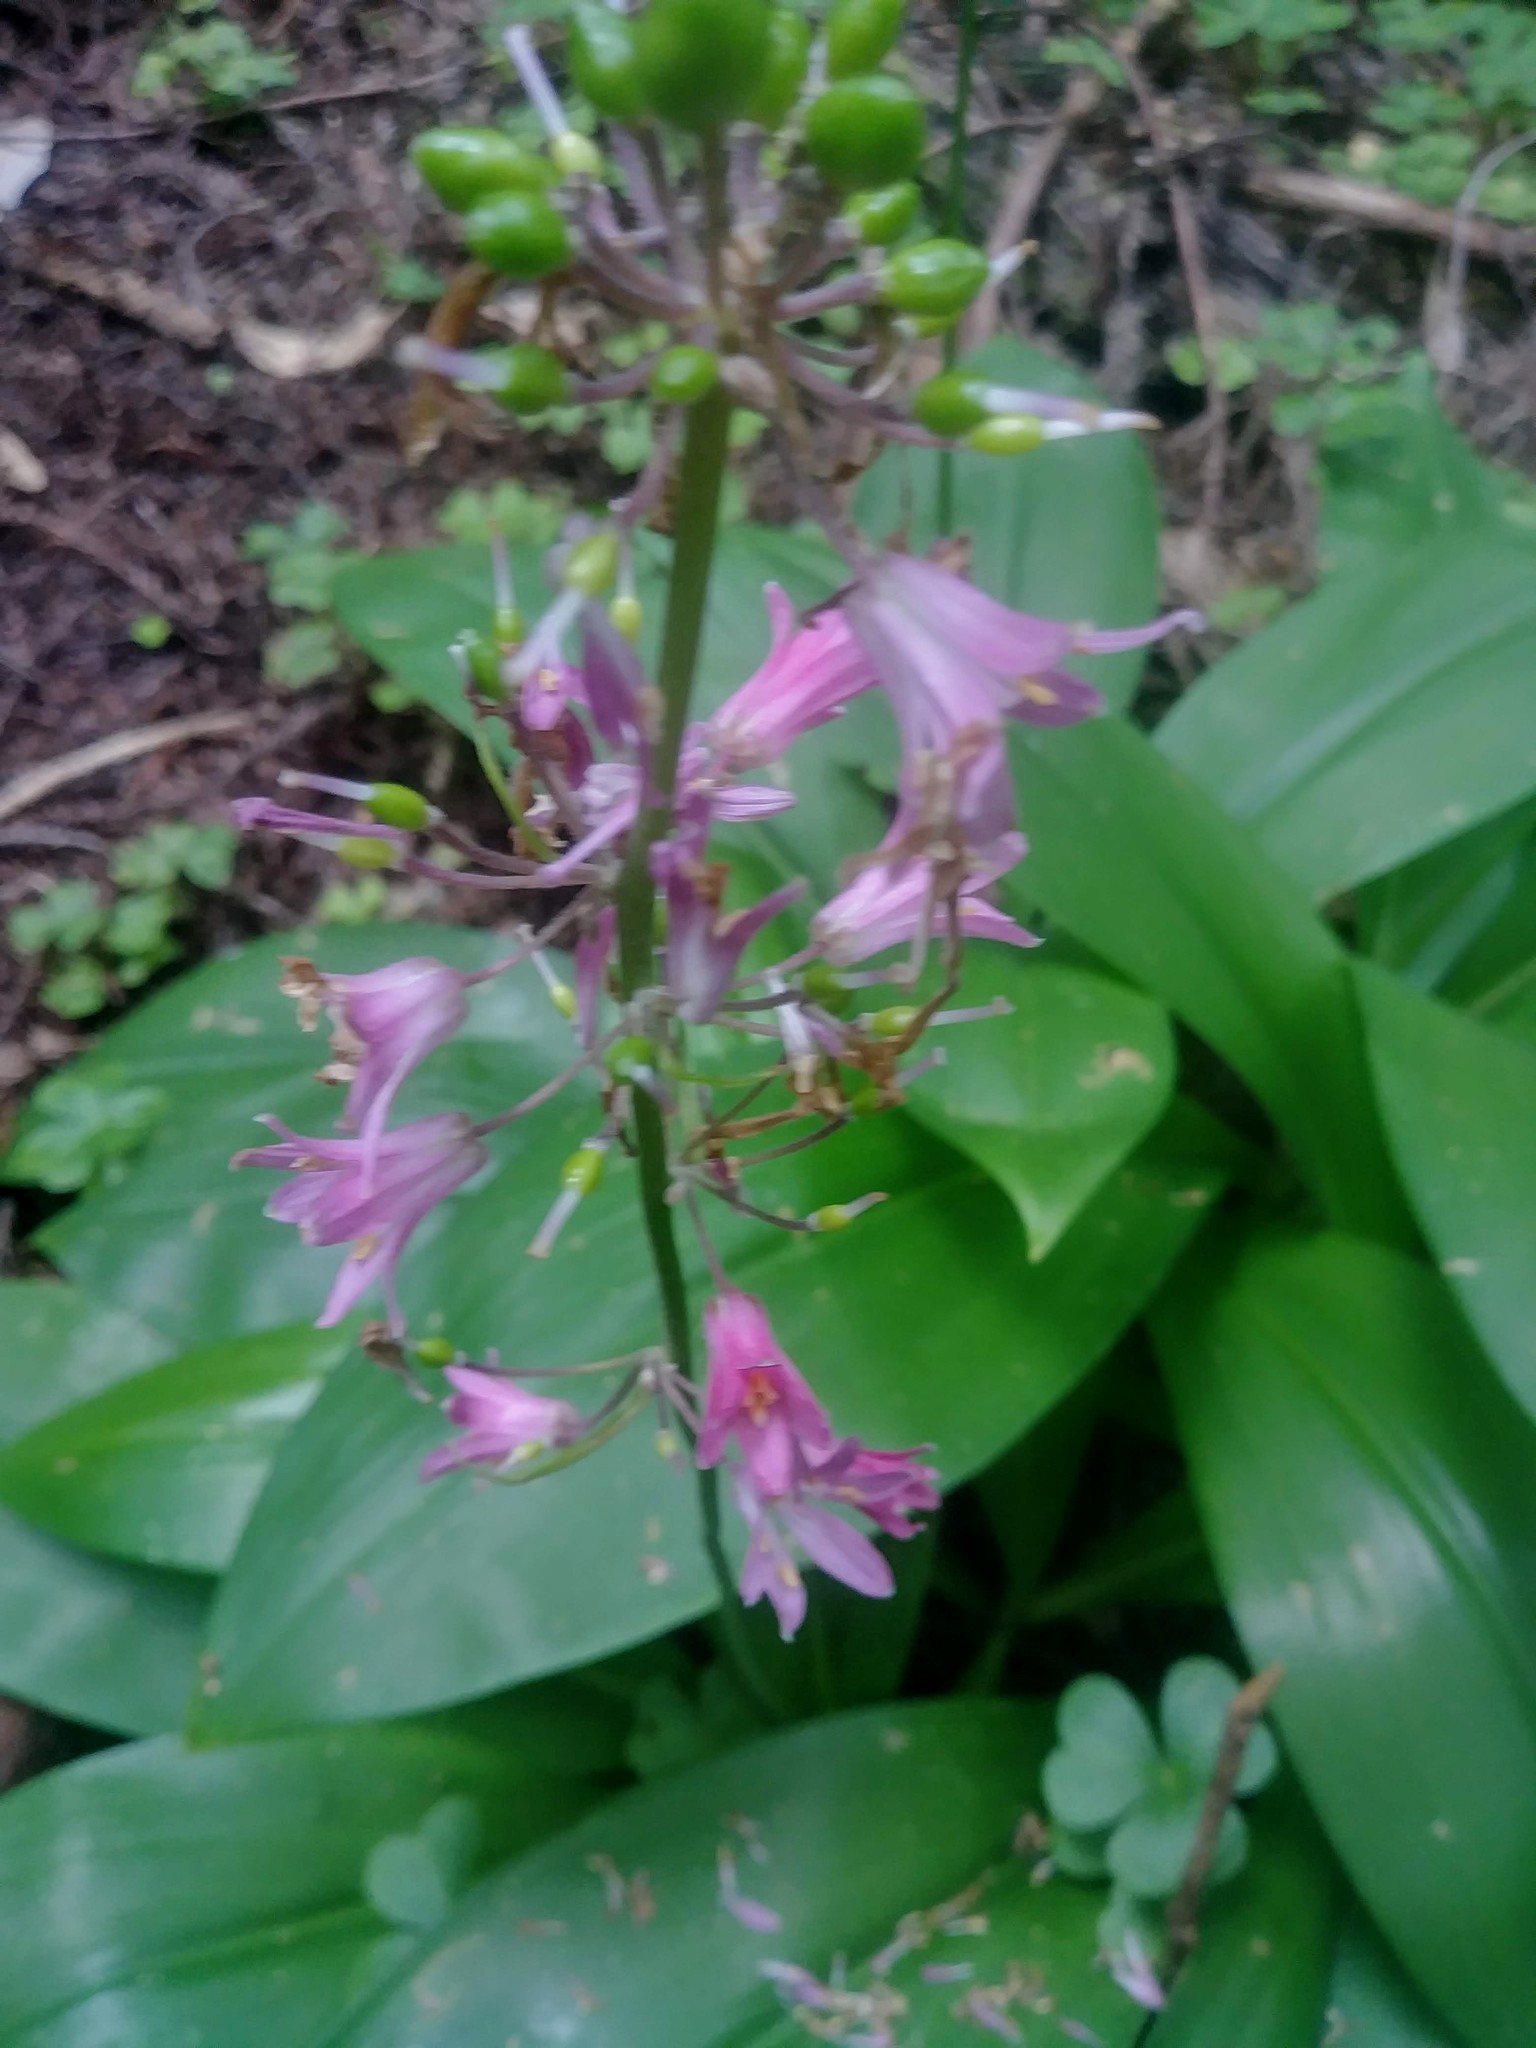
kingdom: Plantae
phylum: Tracheophyta
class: Liliopsida
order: Liliales
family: Liliaceae
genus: Clintonia
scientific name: Clintonia andrewsiana
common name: Red clintonia
